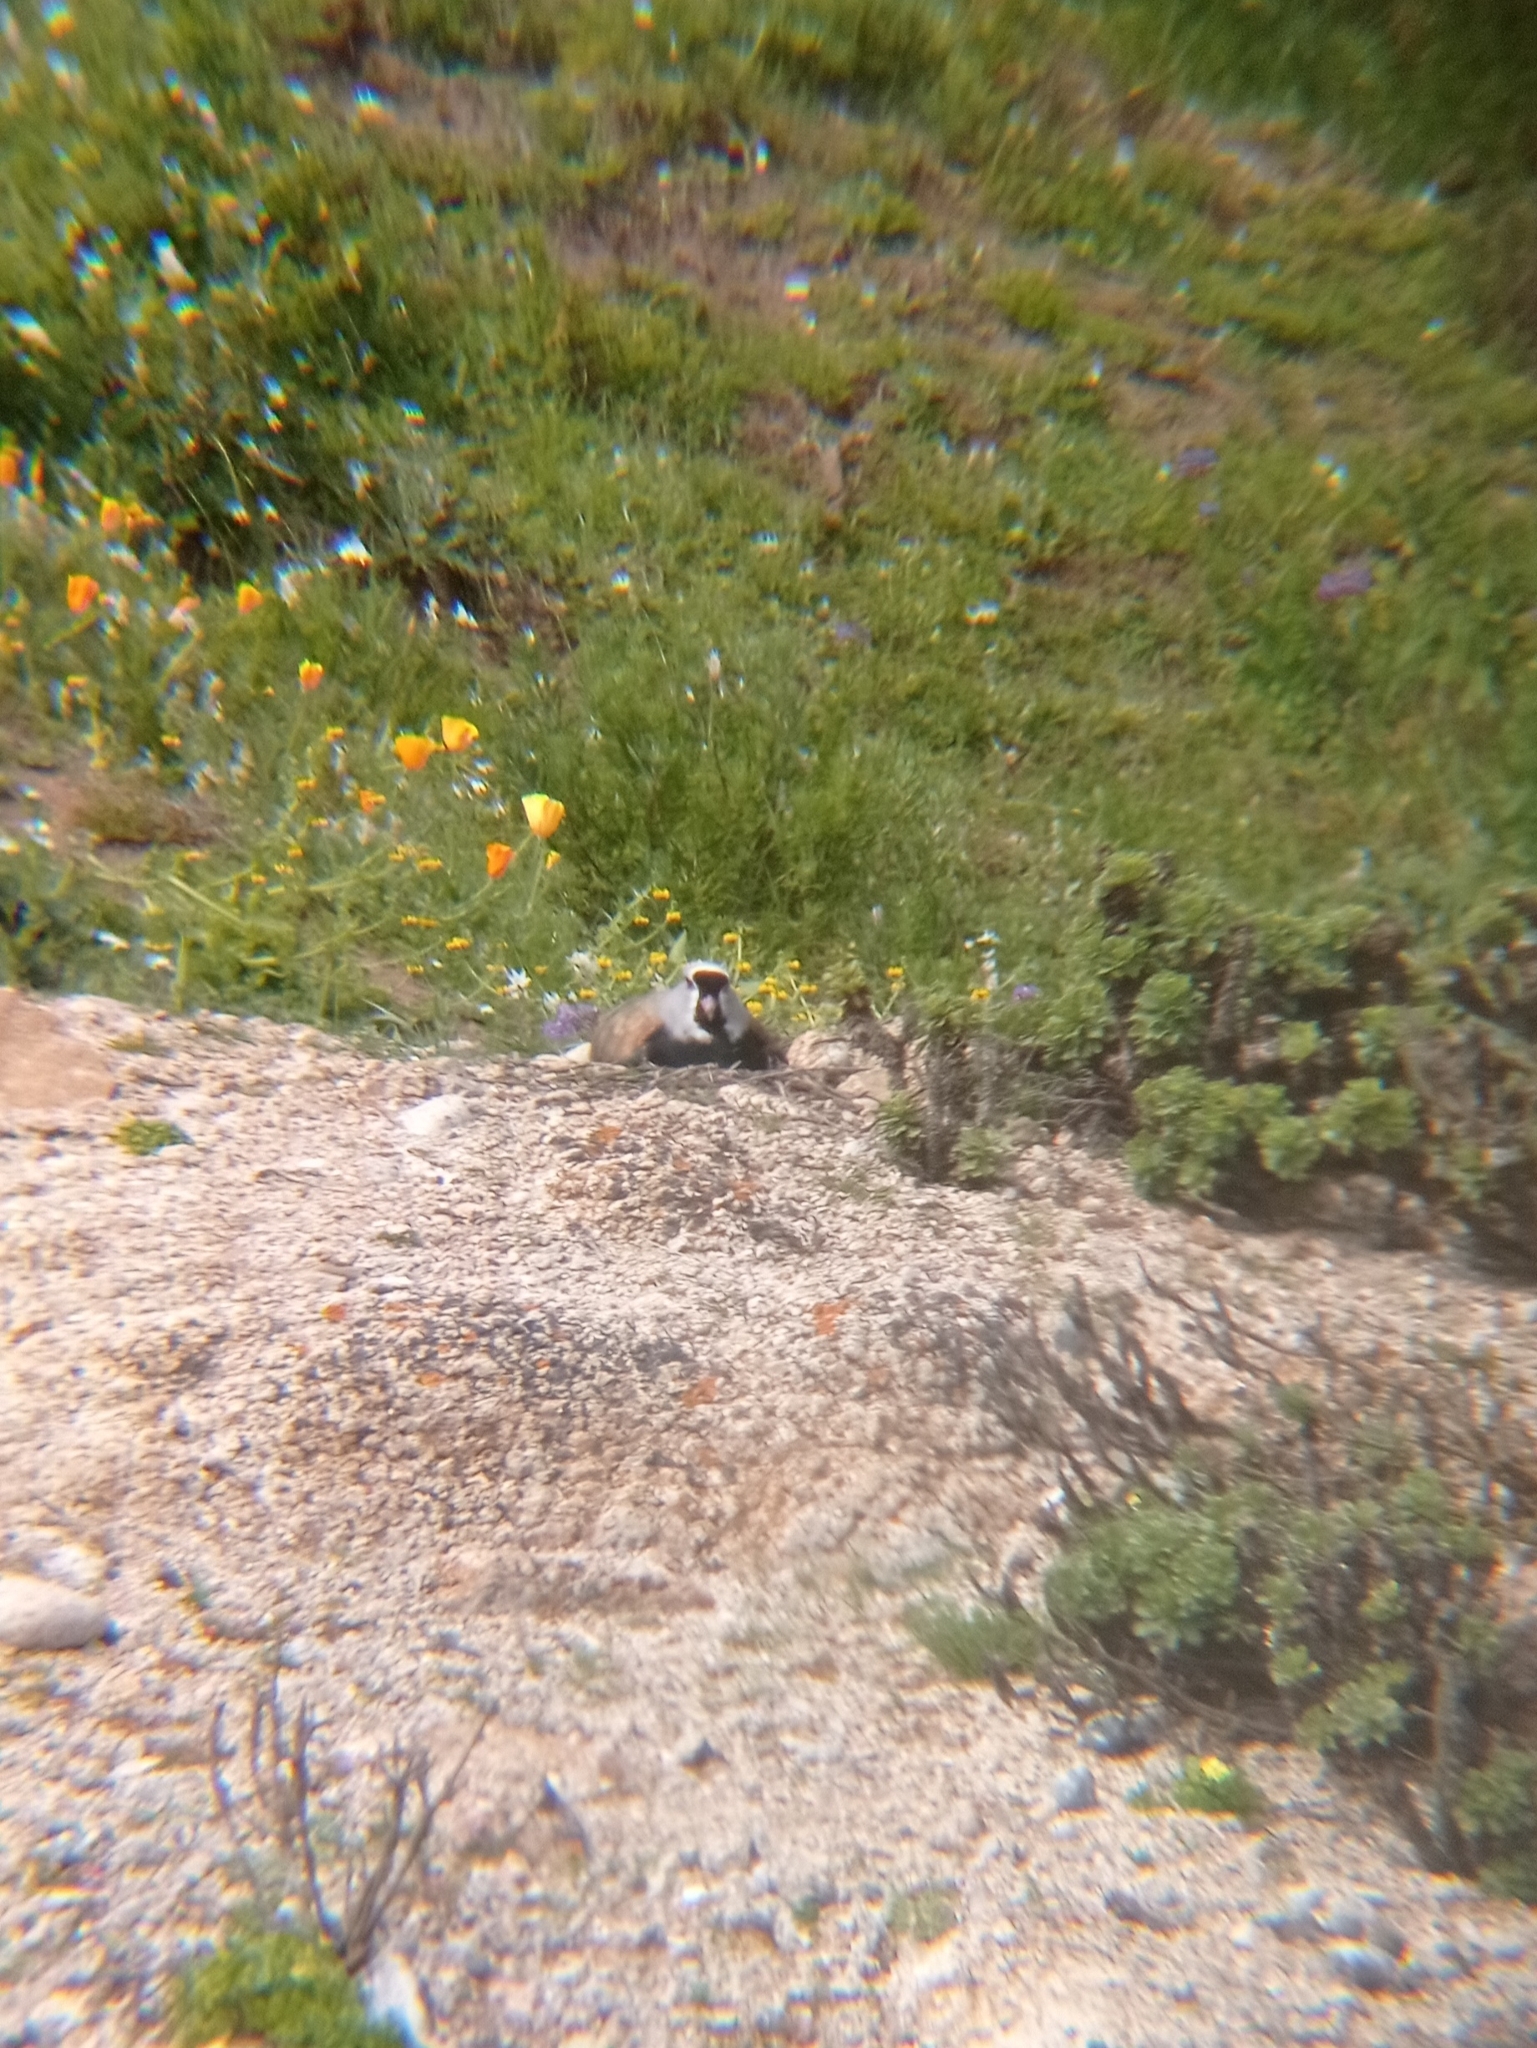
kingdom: Animalia
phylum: Chordata
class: Aves
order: Charadriiformes
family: Charadriidae
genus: Vanellus
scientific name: Vanellus chilensis
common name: Southern lapwing
